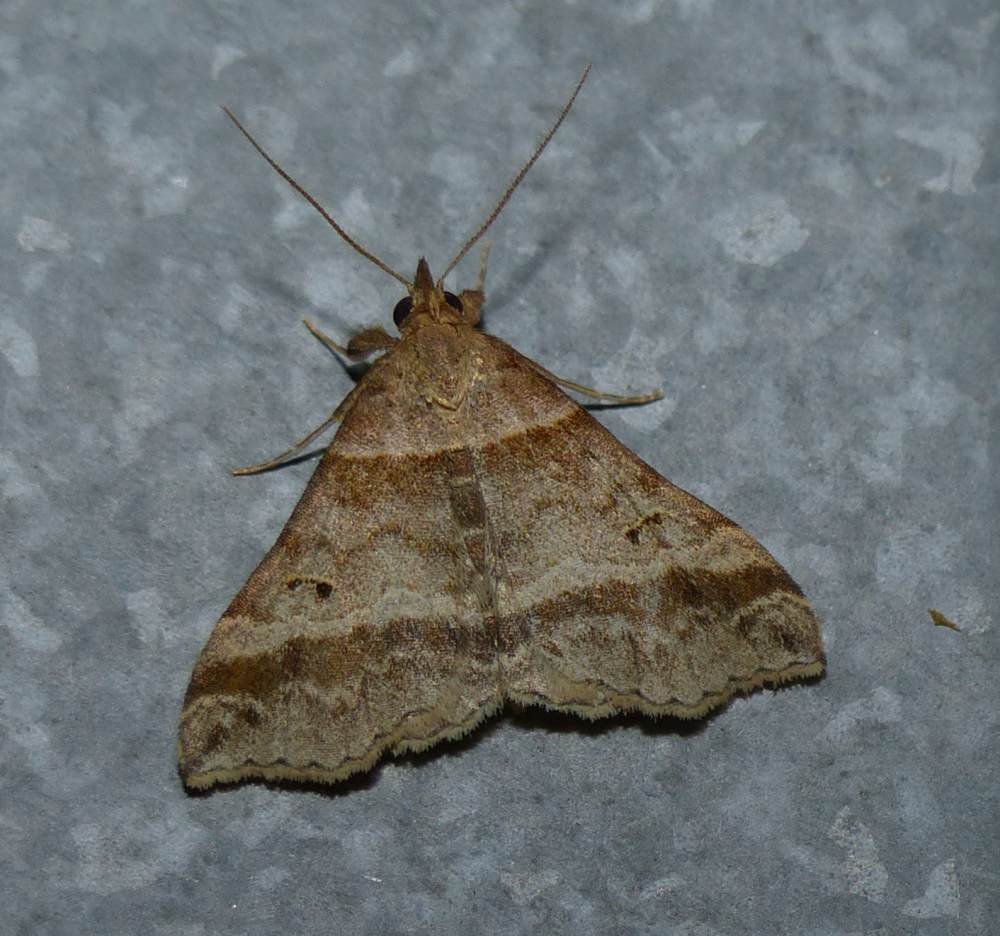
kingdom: Animalia
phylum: Arthropoda
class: Insecta
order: Lepidoptera
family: Erebidae
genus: Phaeolita
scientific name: Phaeolita pyramusalis
